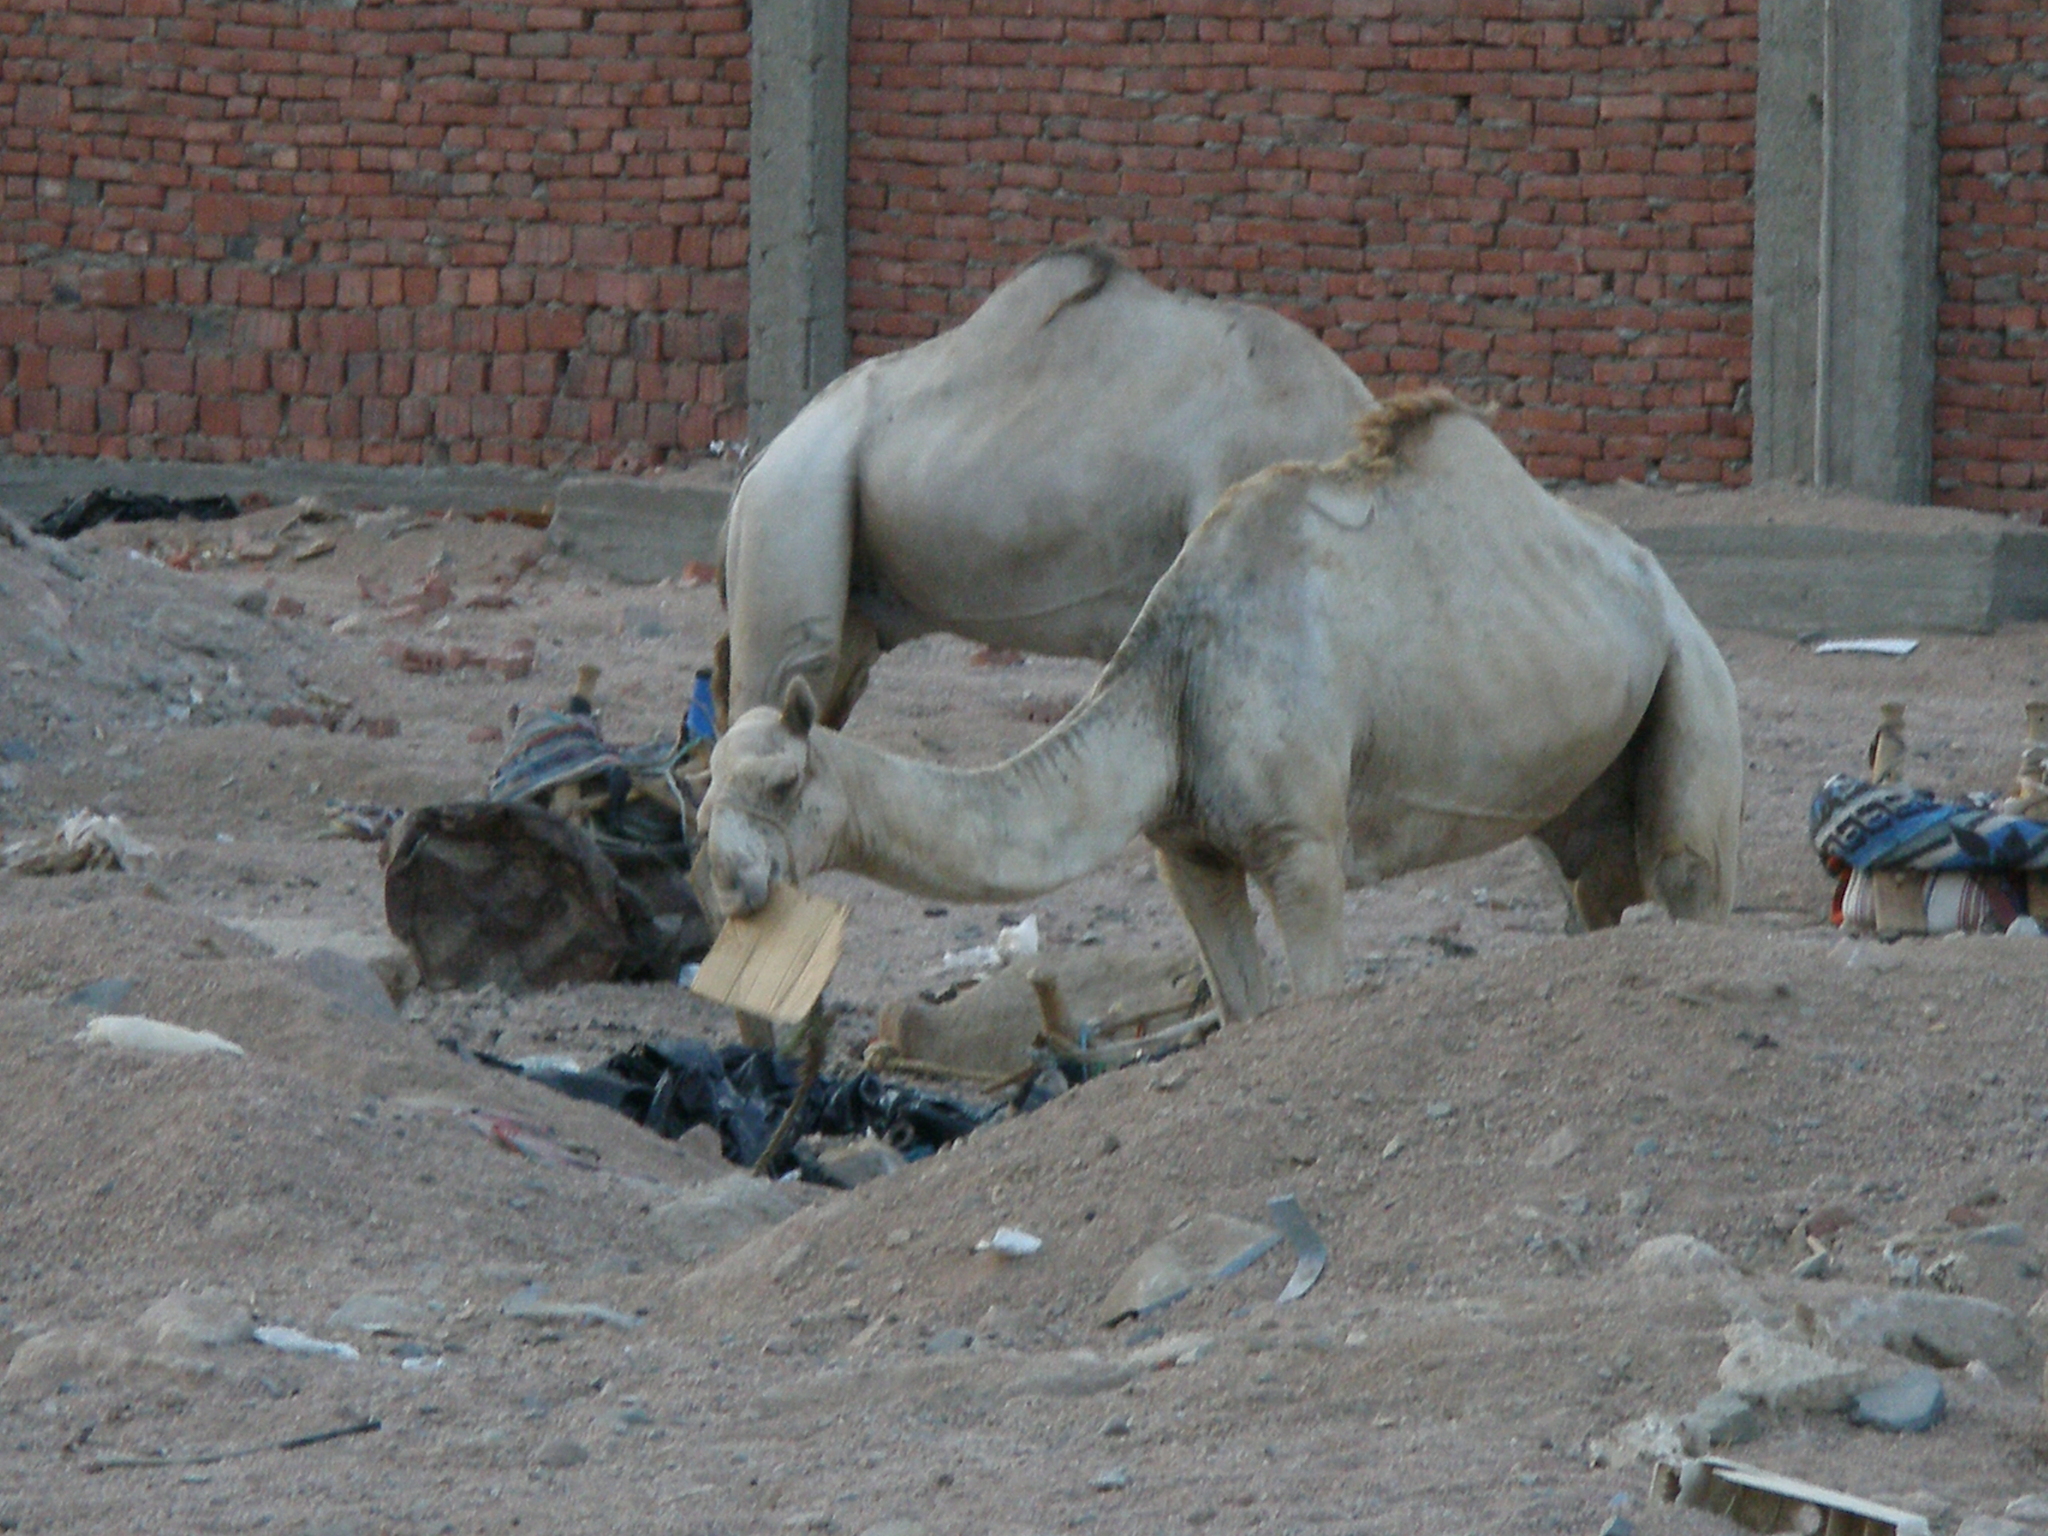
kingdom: Animalia
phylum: Chordata
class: Mammalia
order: Artiodactyla
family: Camelidae
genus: Camelus
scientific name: Camelus dromedarius
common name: One-humped camel
